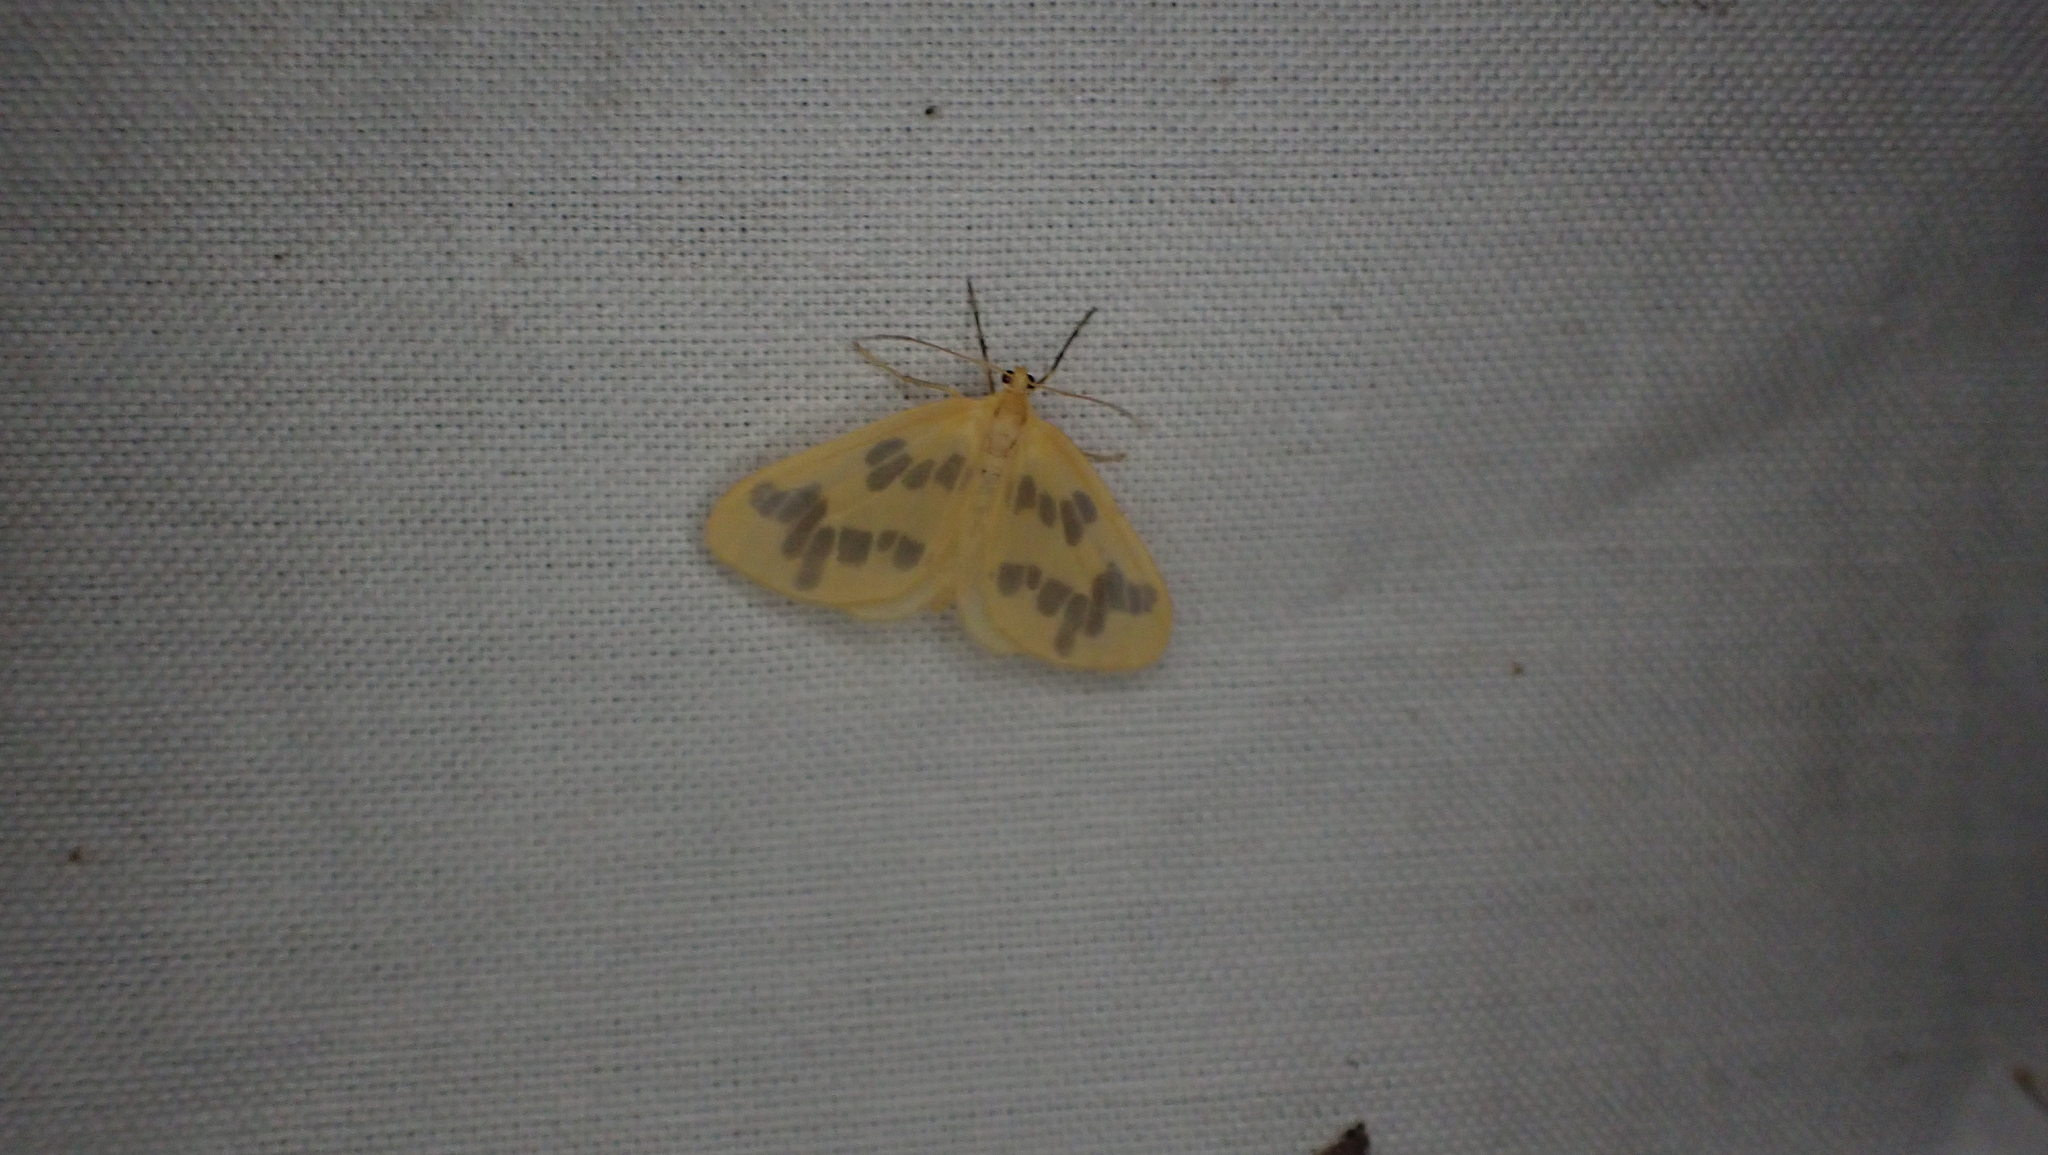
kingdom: Animalia
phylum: Arthropoda
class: Insecta
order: Lepidoptera
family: Geometridae
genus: Eubaphe
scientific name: Eubaphe mendica
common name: Beggar
